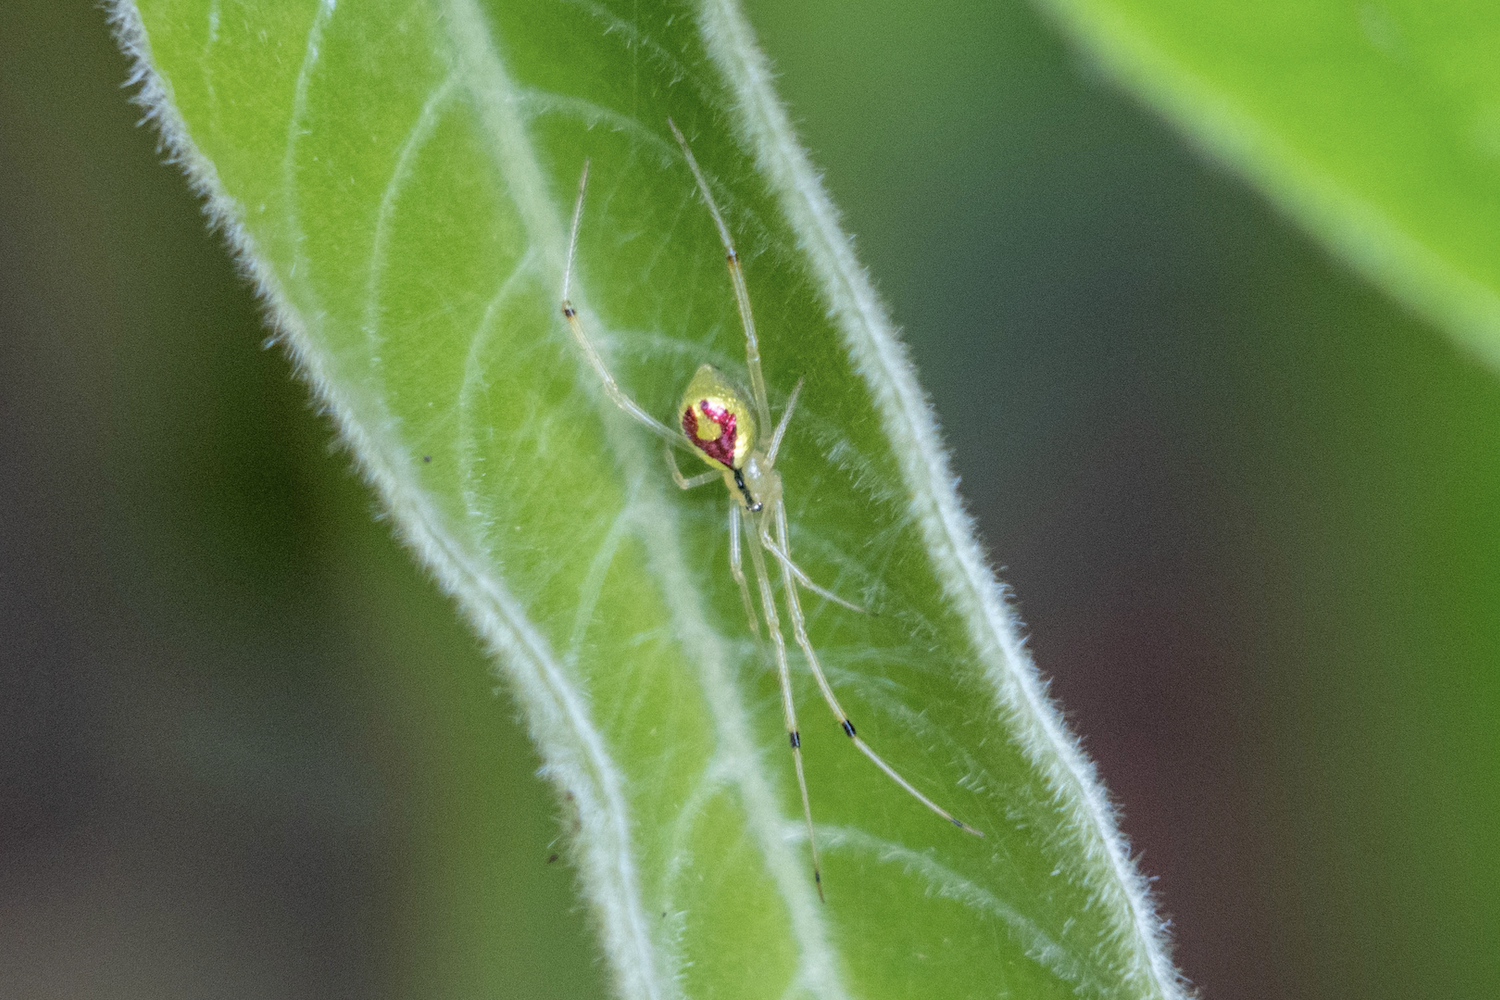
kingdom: Animalia
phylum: Arthropoda
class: Arachnida
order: Araneae
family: Theridiidae
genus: Thwaitesia
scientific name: Thwaitesia glabicauda
